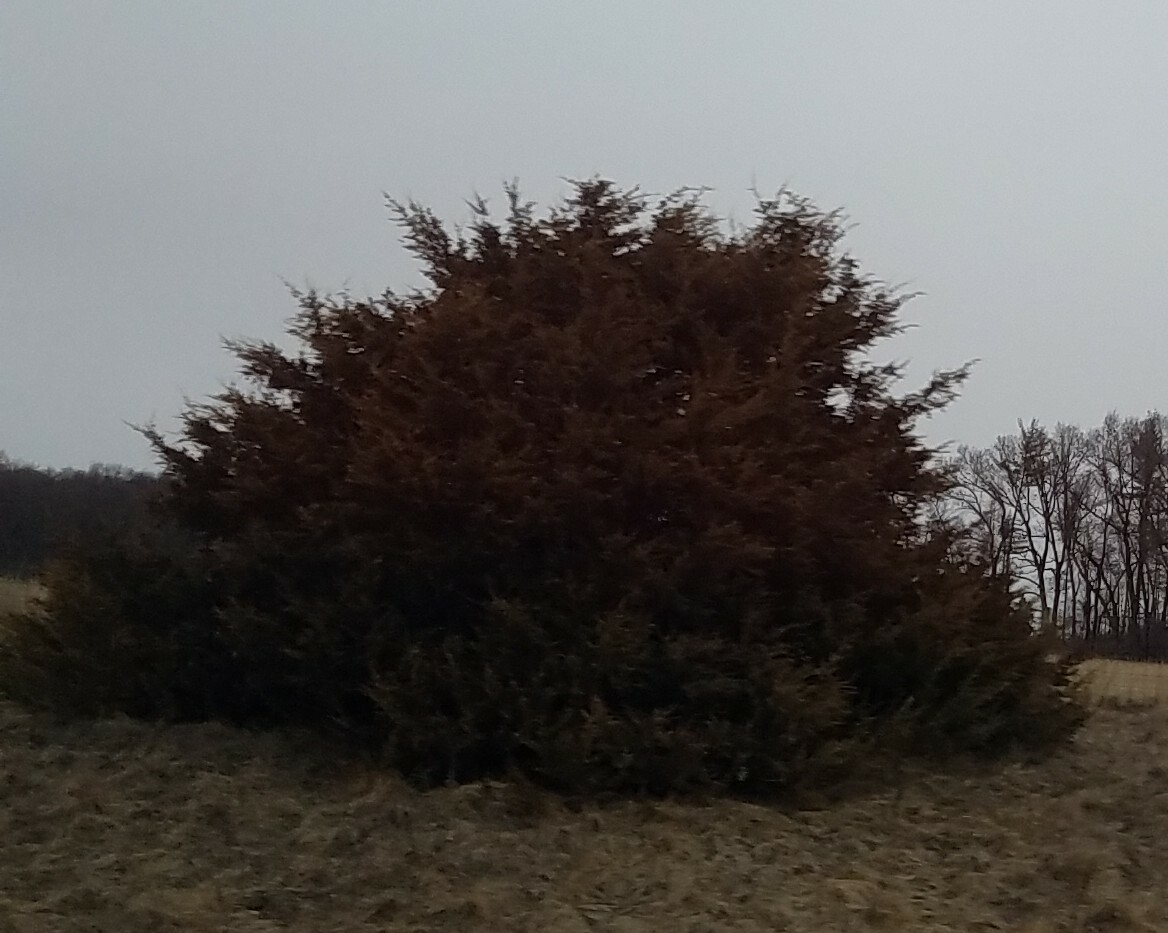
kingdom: Plantae
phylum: Tracheophyta
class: Pinopsida
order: Pinales
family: Cupressaceae
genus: Juniperus
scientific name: Juniperus virginiana
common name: Red juniper
